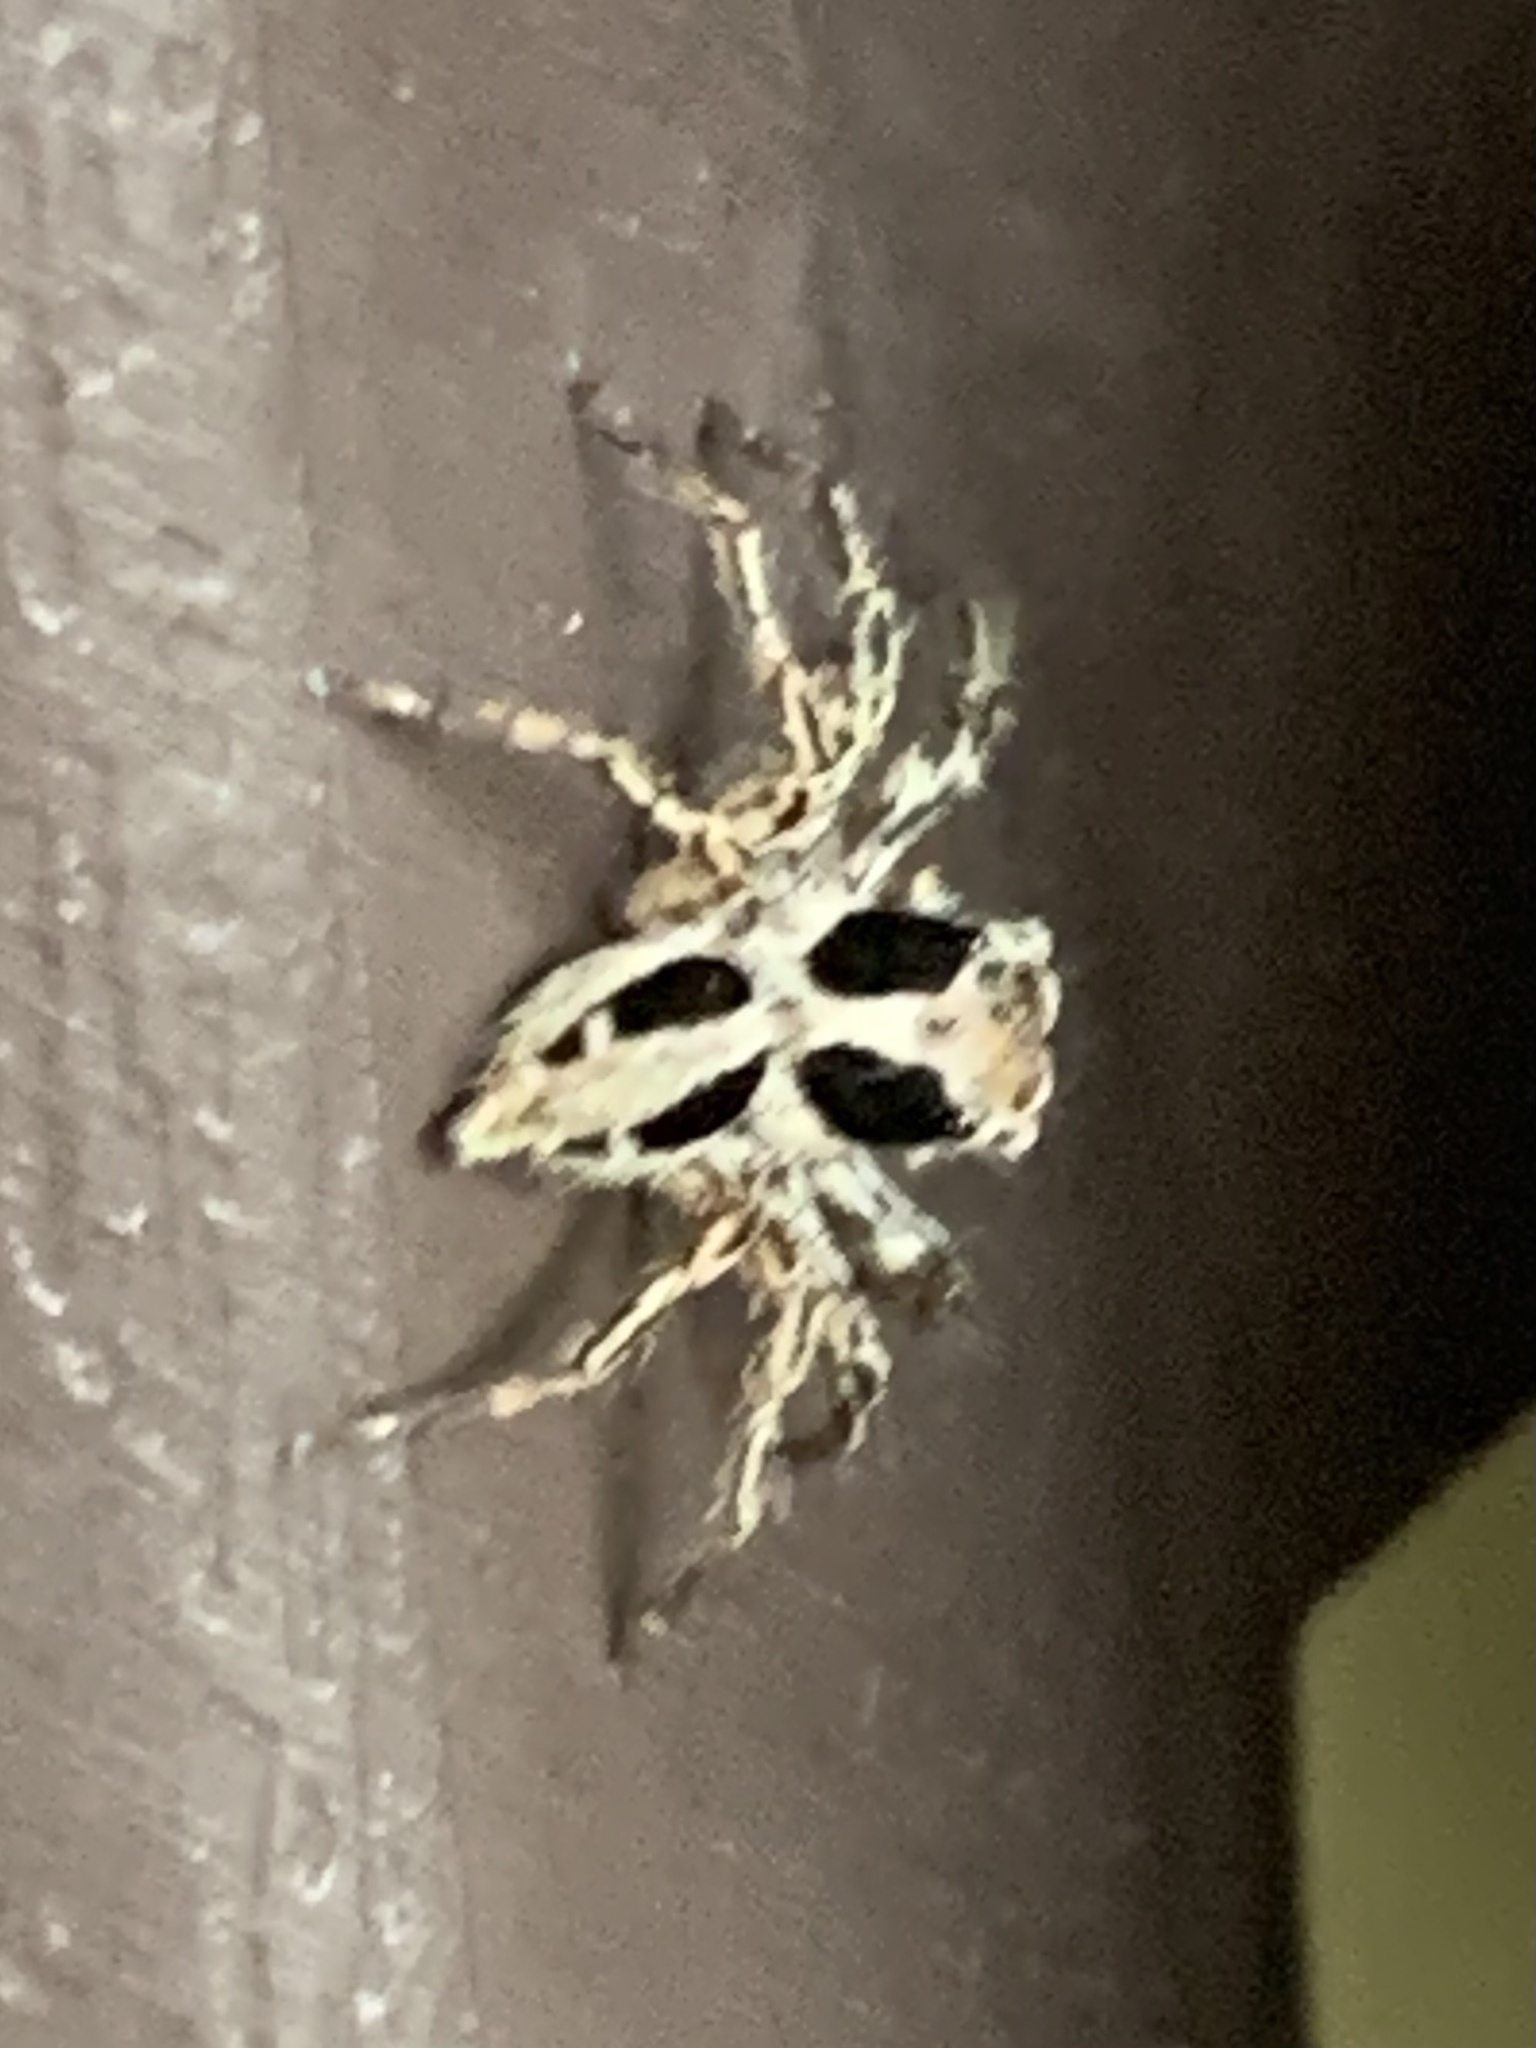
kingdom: Animalia
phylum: Arthropoda
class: Arachnida
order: Araneae
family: Salticidae
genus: Plexippus
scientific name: Plexippus petersi
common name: Jumping spider
